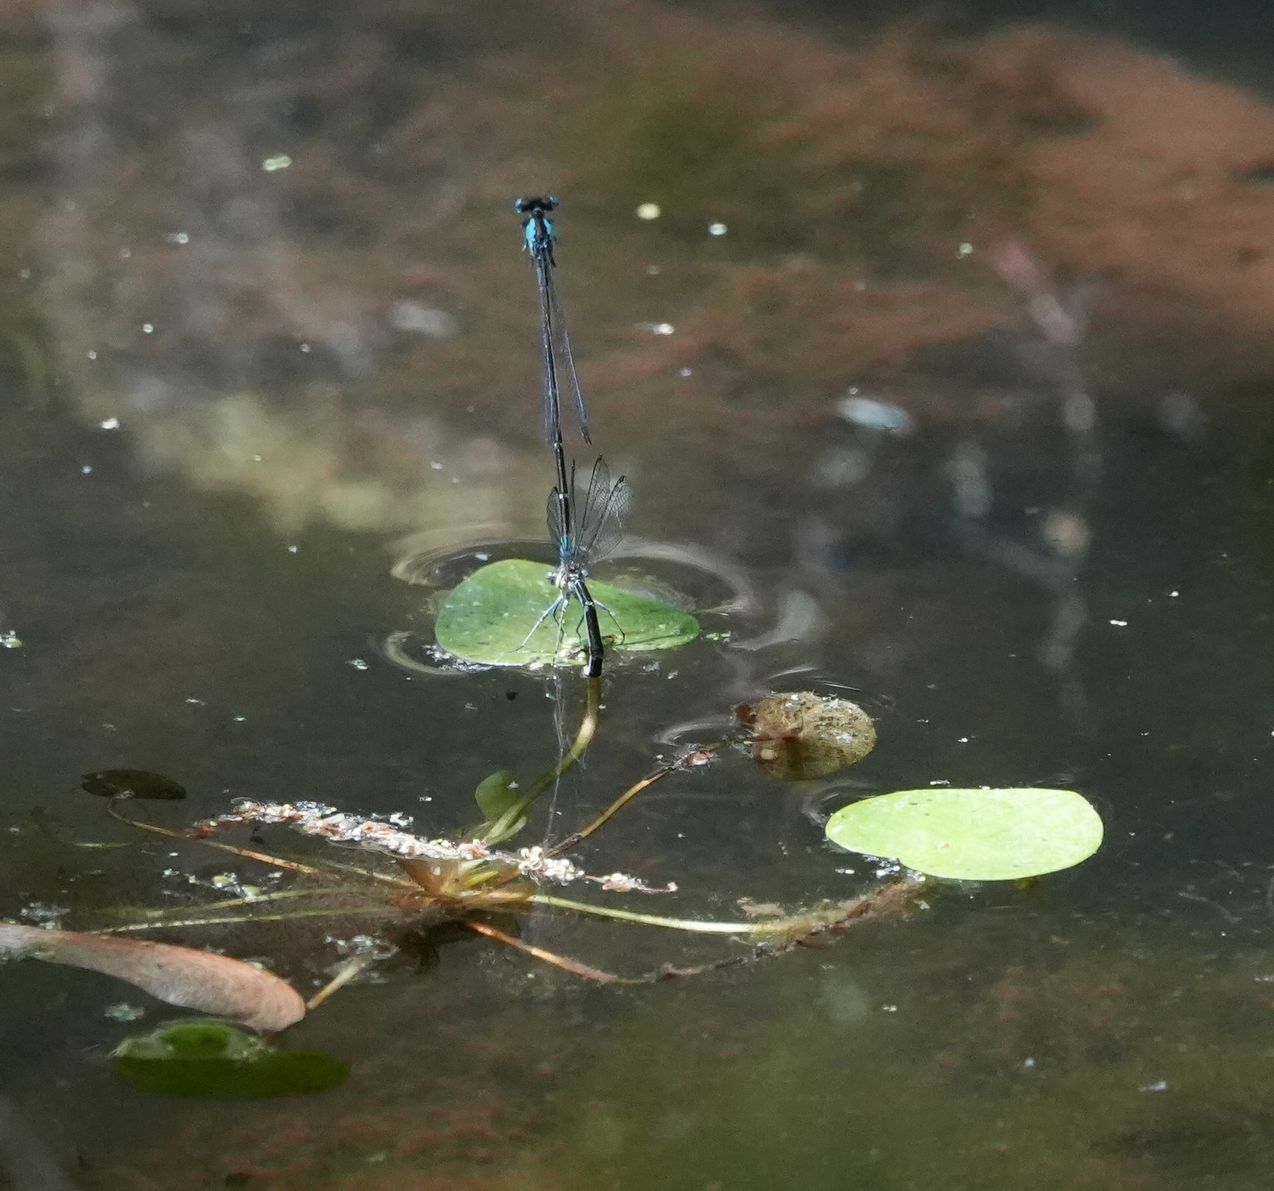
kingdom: Animalia
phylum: Arthropoda
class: Insecta
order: Odonata
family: Coenagrionidae
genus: Chromagrion
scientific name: Chromagrion conditum
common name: Aurora damsel
